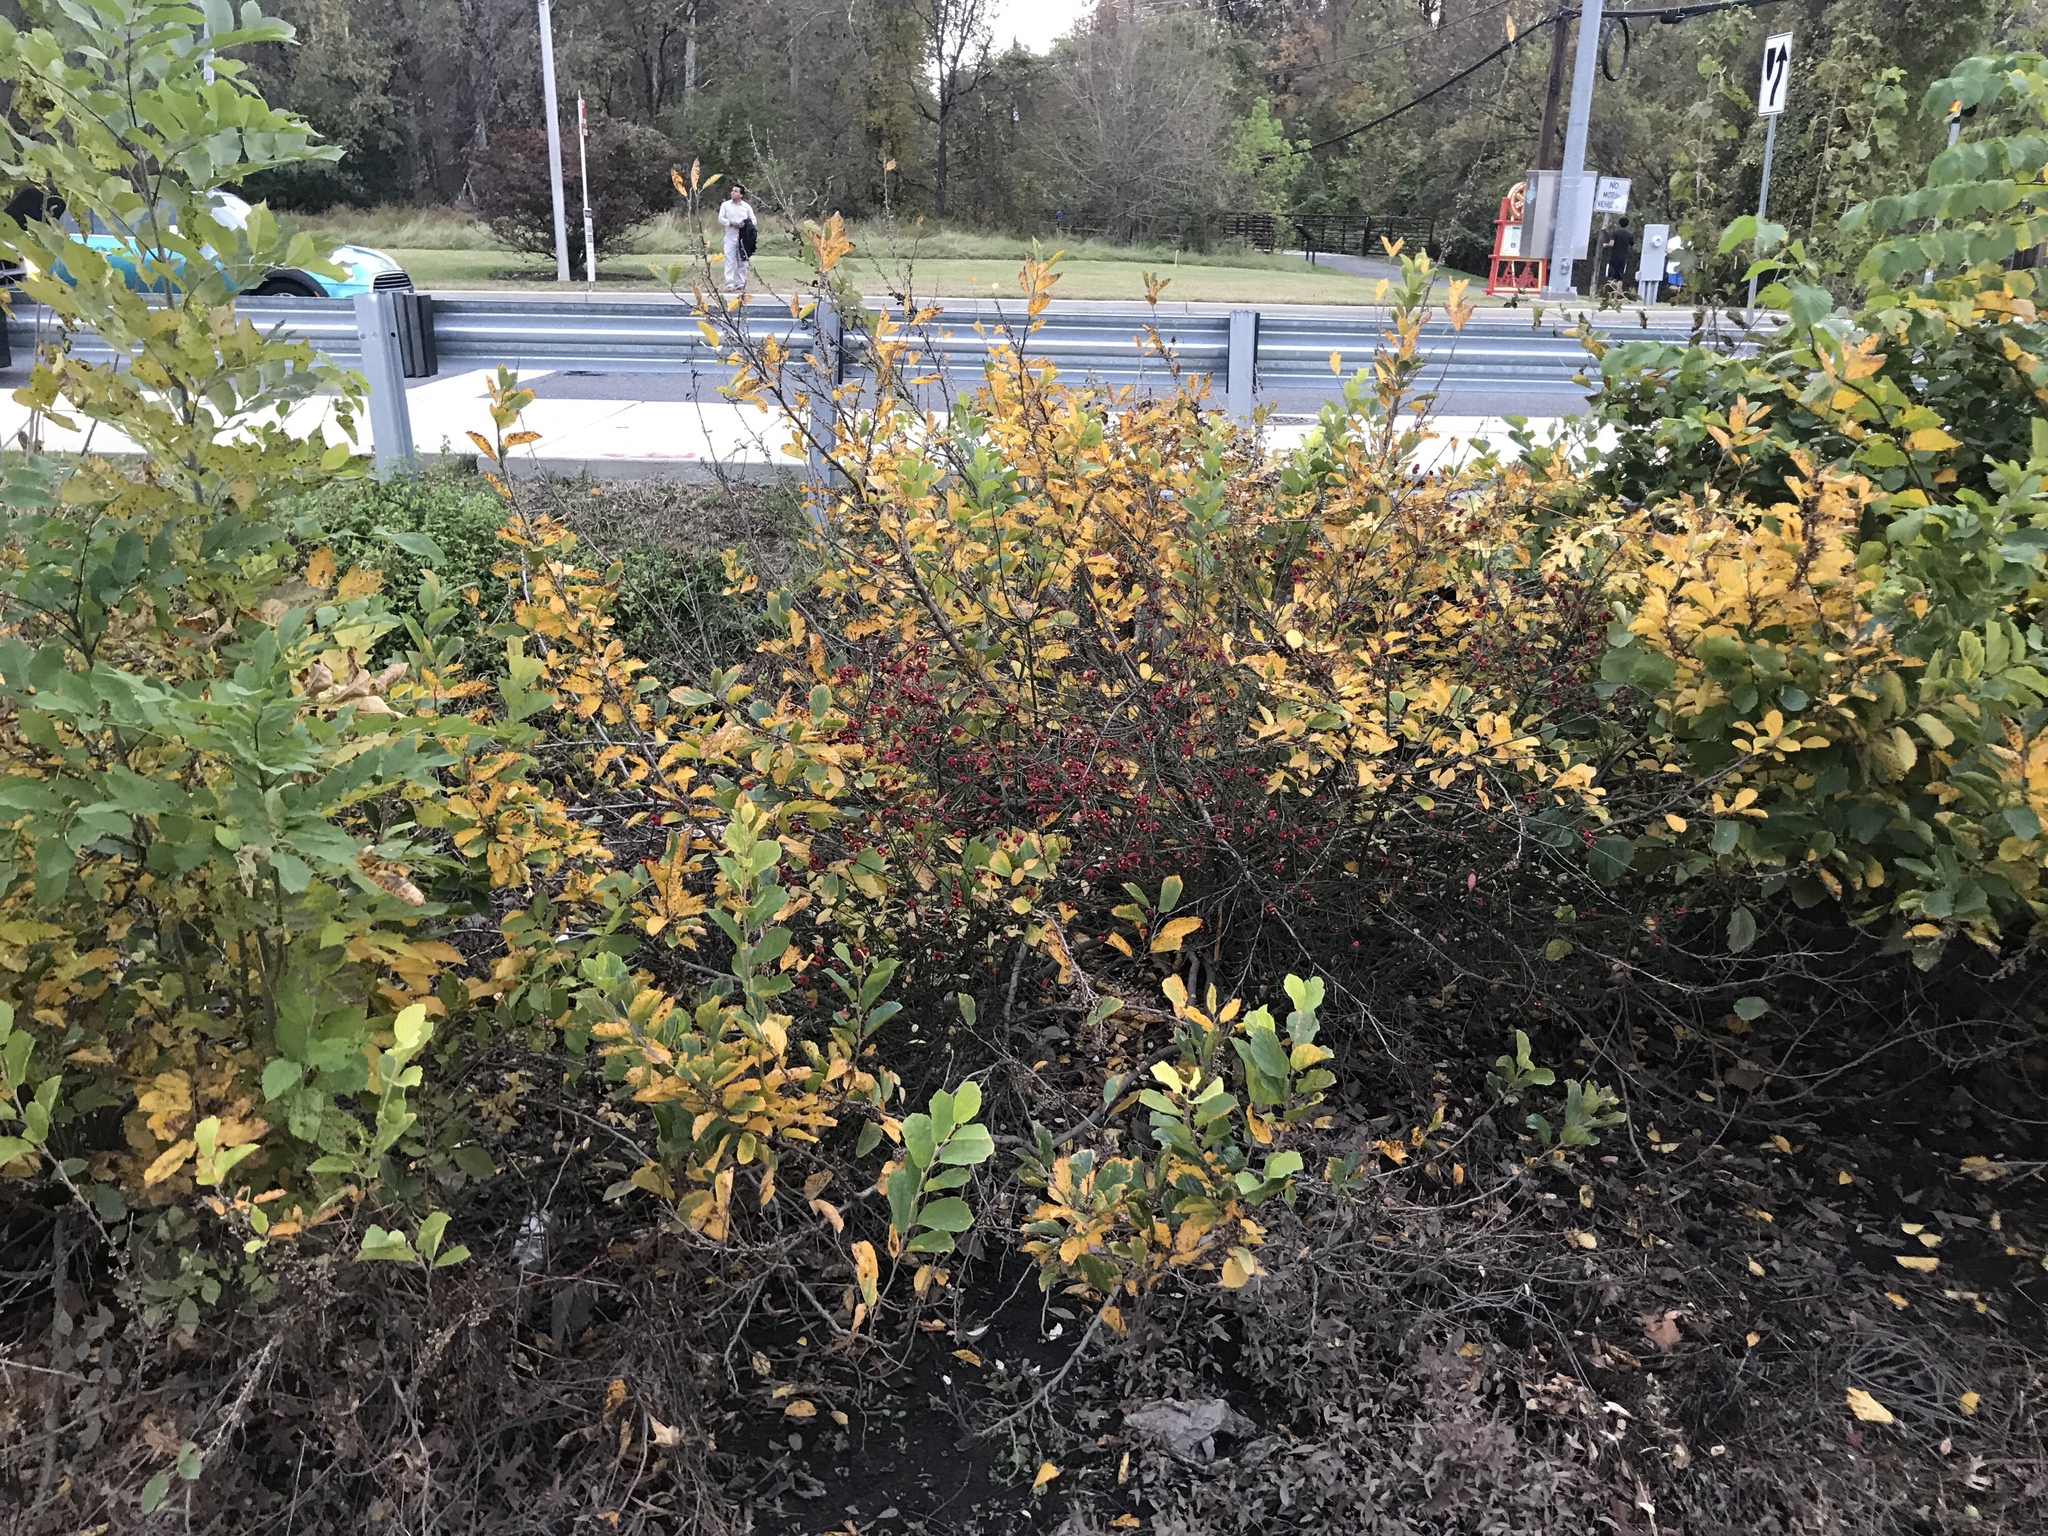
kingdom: Plantae
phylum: Tracheophyta
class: Magnoliopsida
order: Celastrales
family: Celastraceae
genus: Euonymus
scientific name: Euonymus americanus
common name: Bursting-heart
